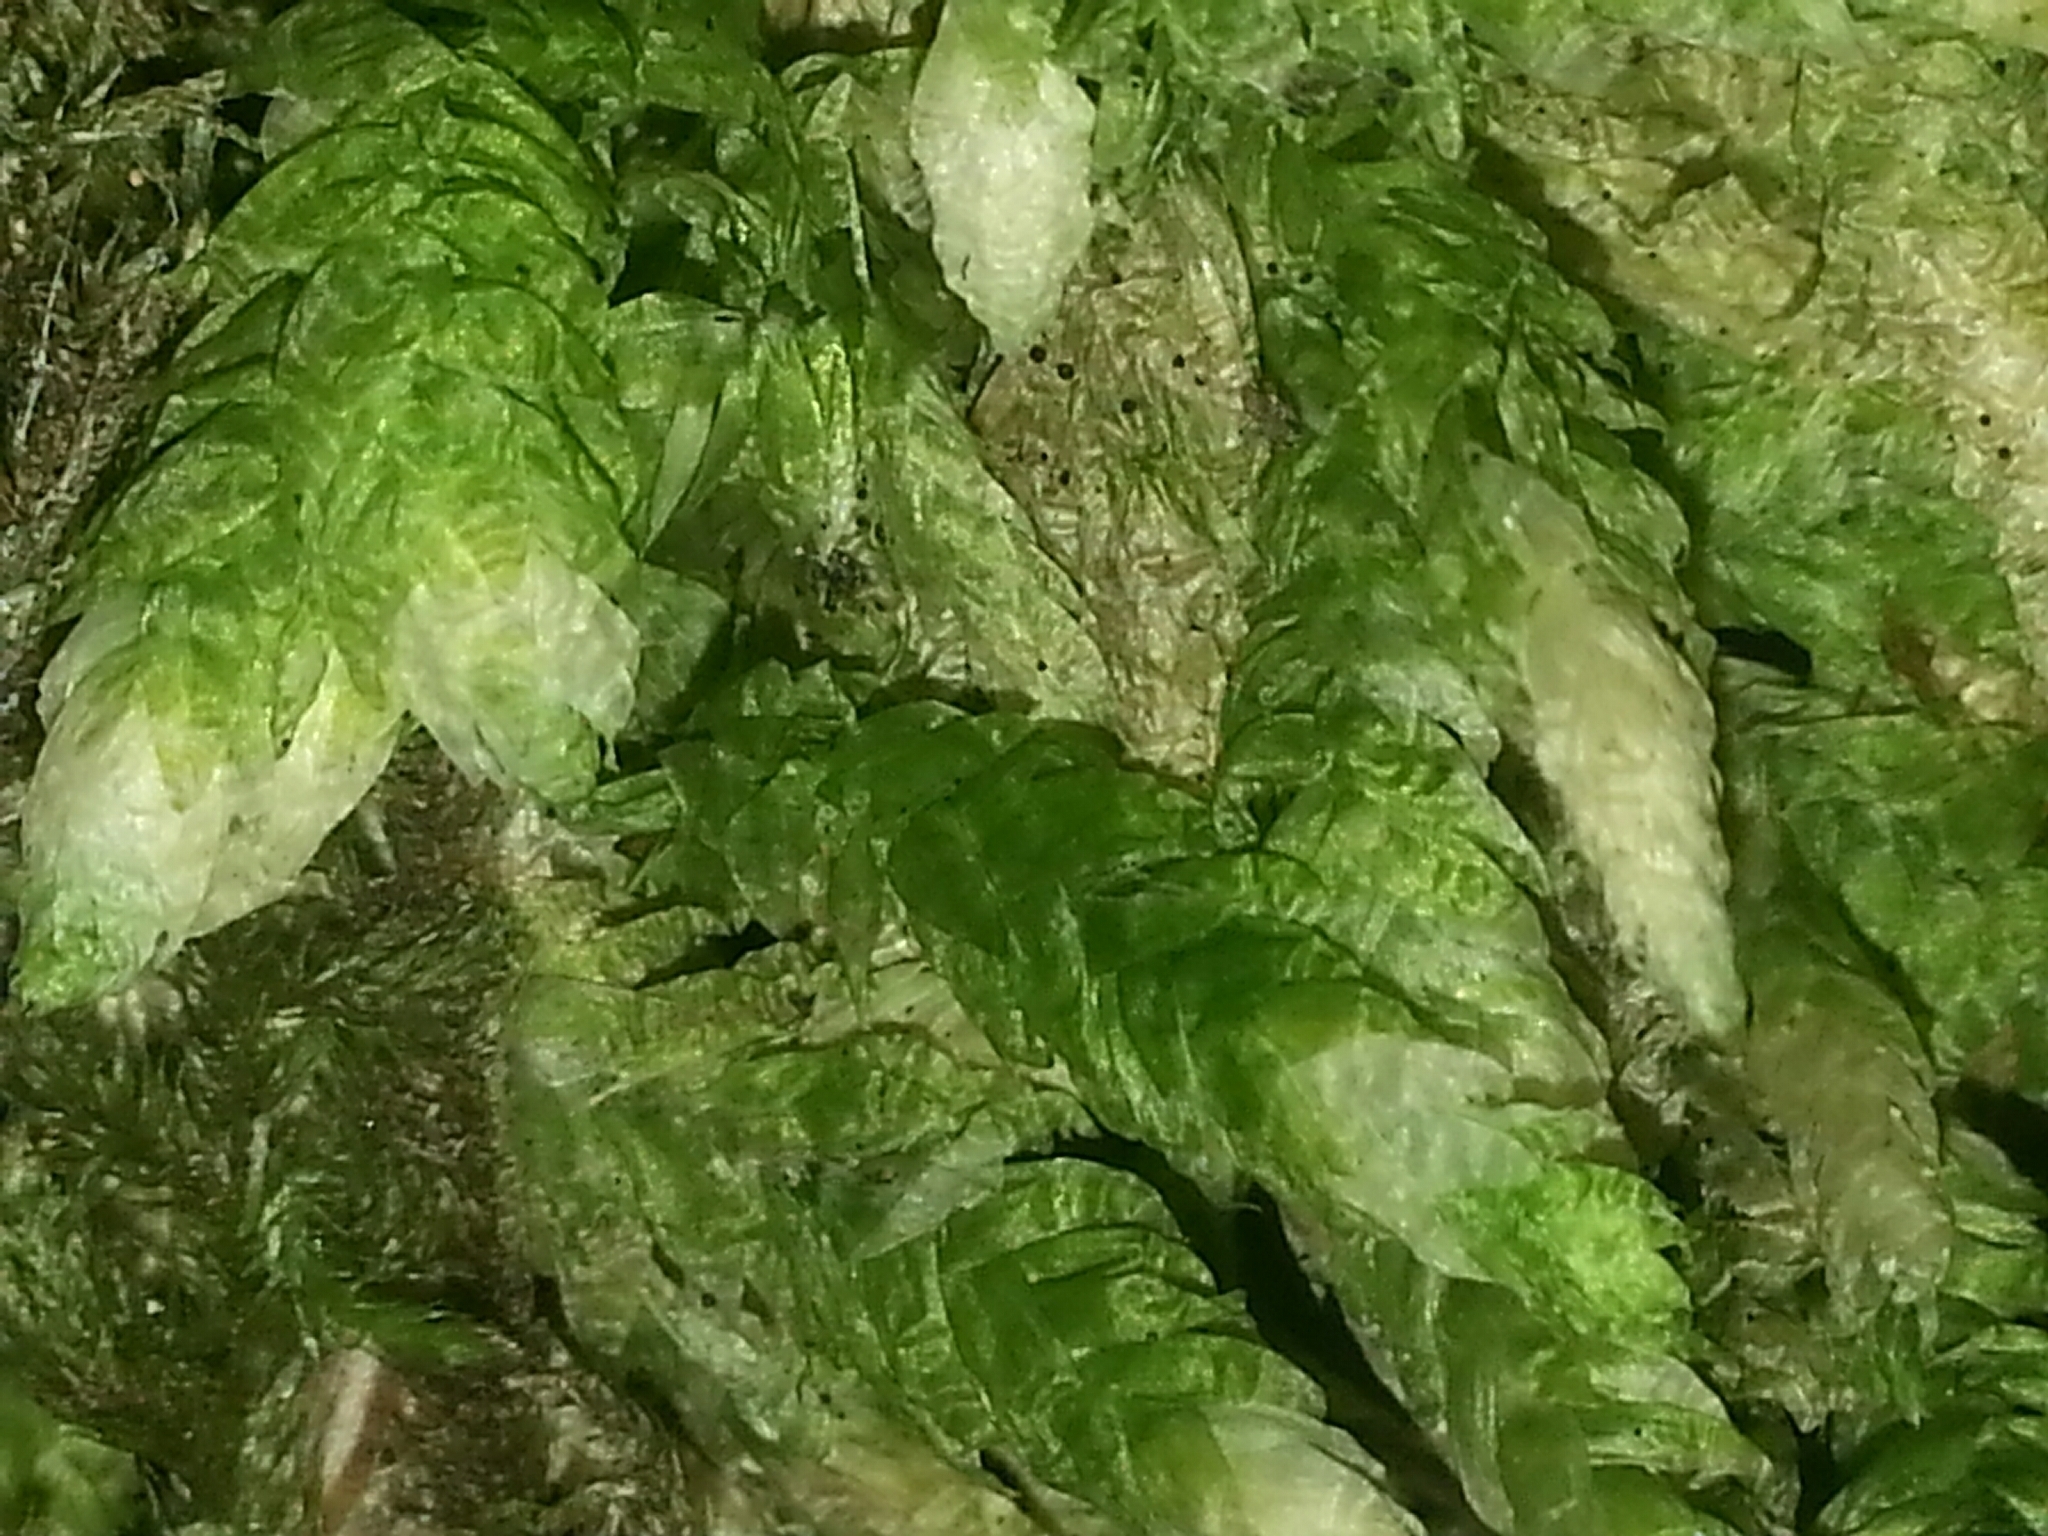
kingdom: Plantae
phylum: Bryophyta
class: Bryopsida
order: Hypnales
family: Plagiotheciaceae
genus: Plagiothecium
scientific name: Plagiothecium undulatum
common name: Waved silk-moss
